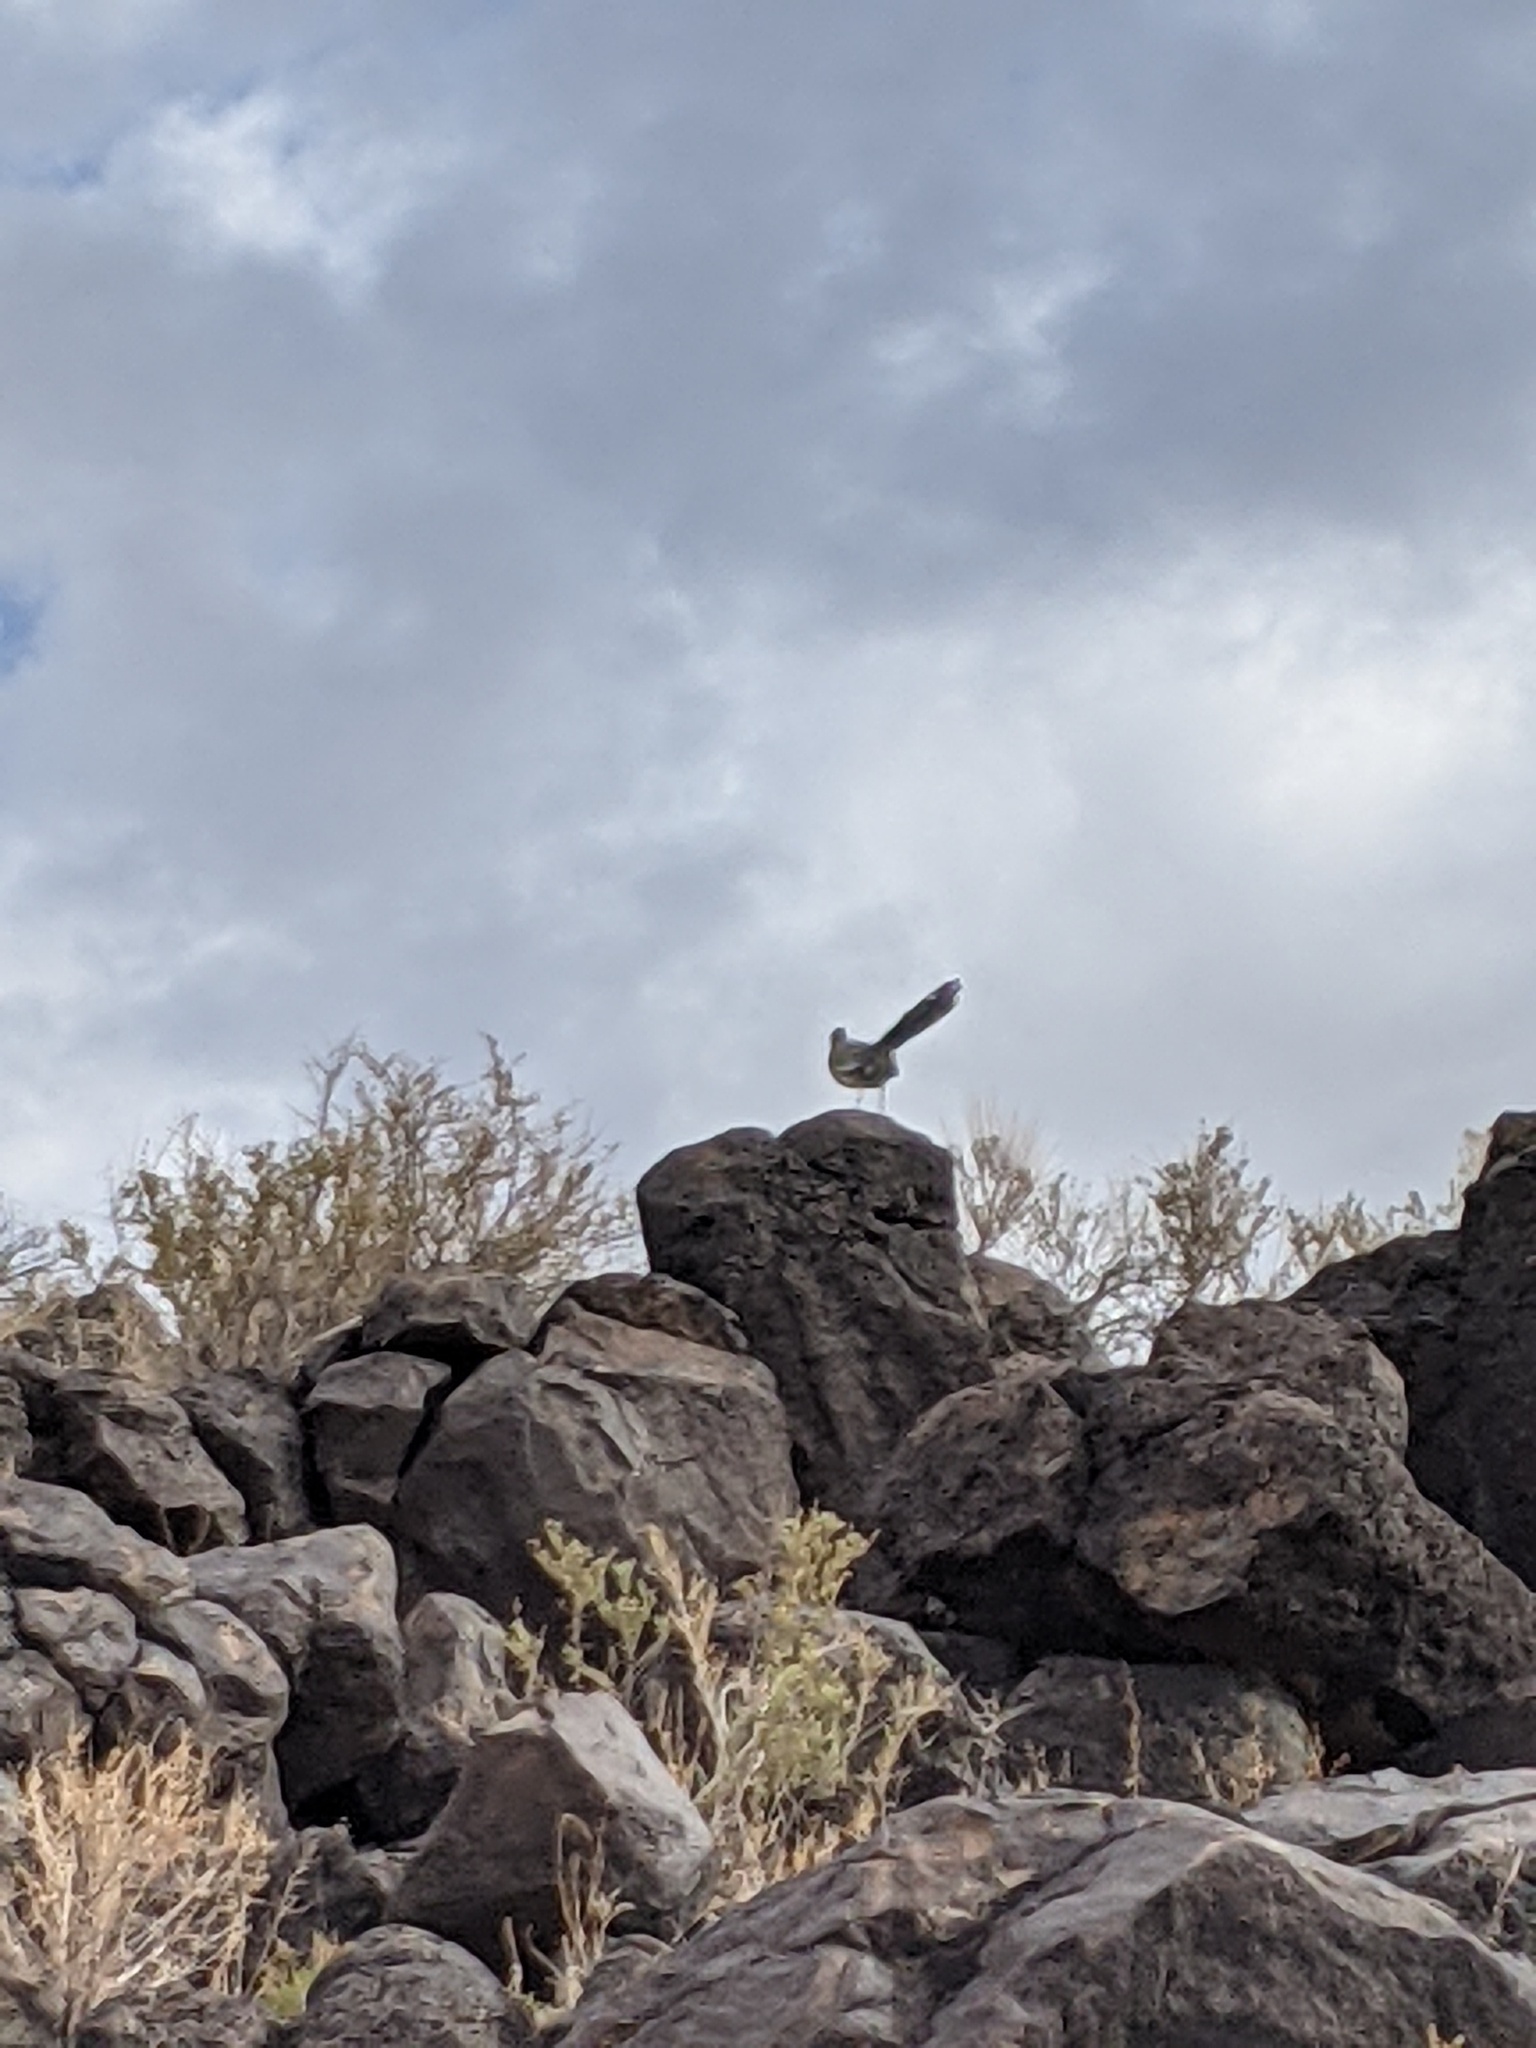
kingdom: Animalia
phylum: Chordata
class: Aves
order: Cuculiformes
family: Cuculidae
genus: Geococcyx
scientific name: Geococcyx californianus
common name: Greater roadrunner
